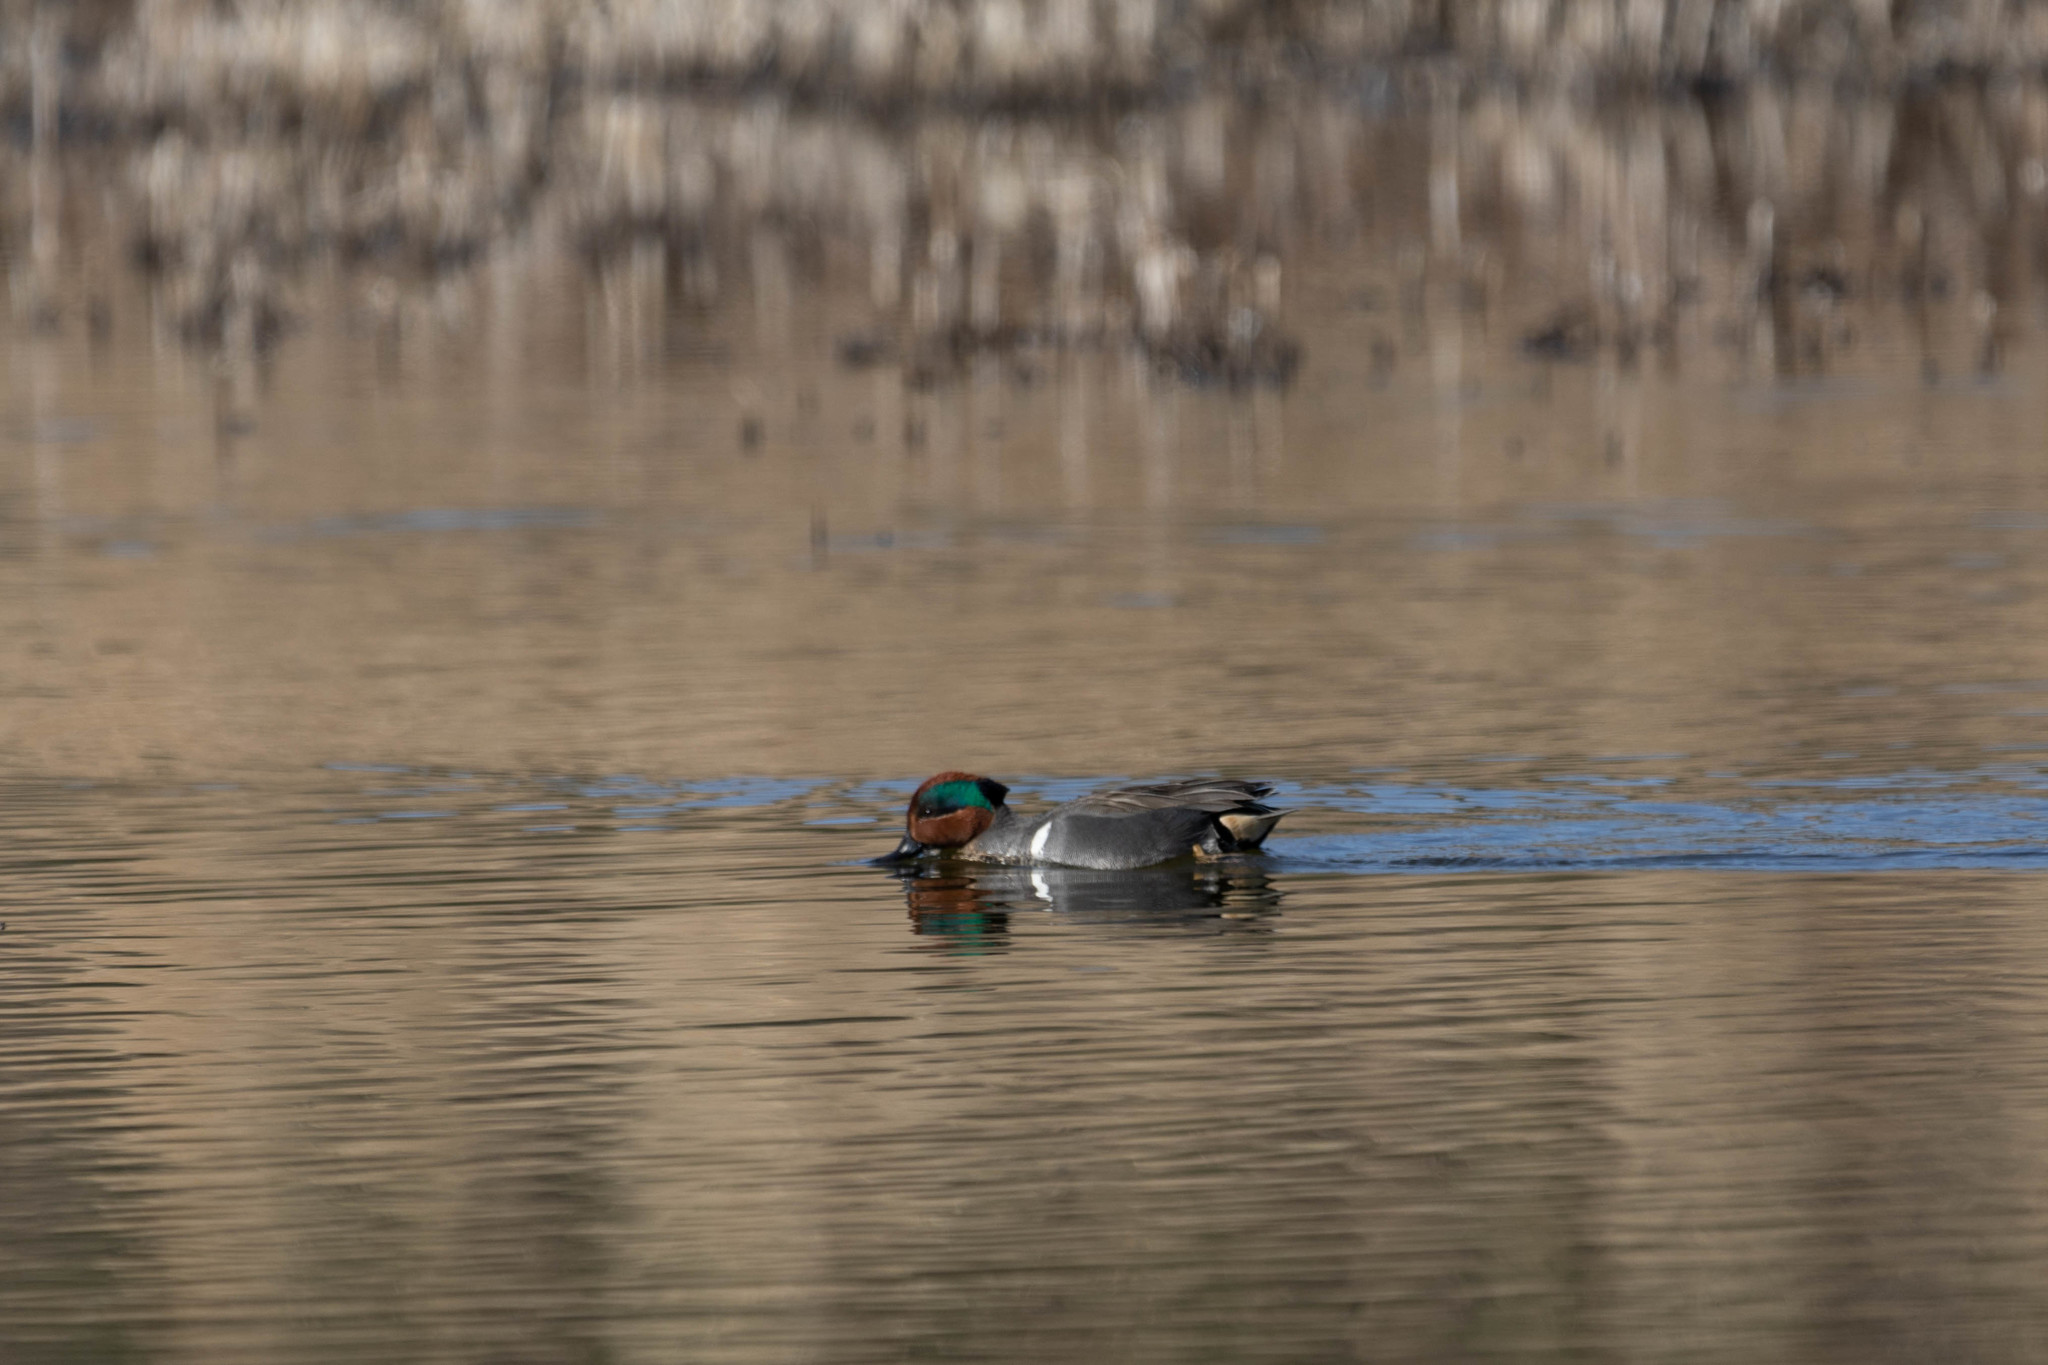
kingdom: Animalia
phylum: Chordata
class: Aves
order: Anseriformes
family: Anatidae
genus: Anas
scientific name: Anas crecca
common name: Eurasian teal
